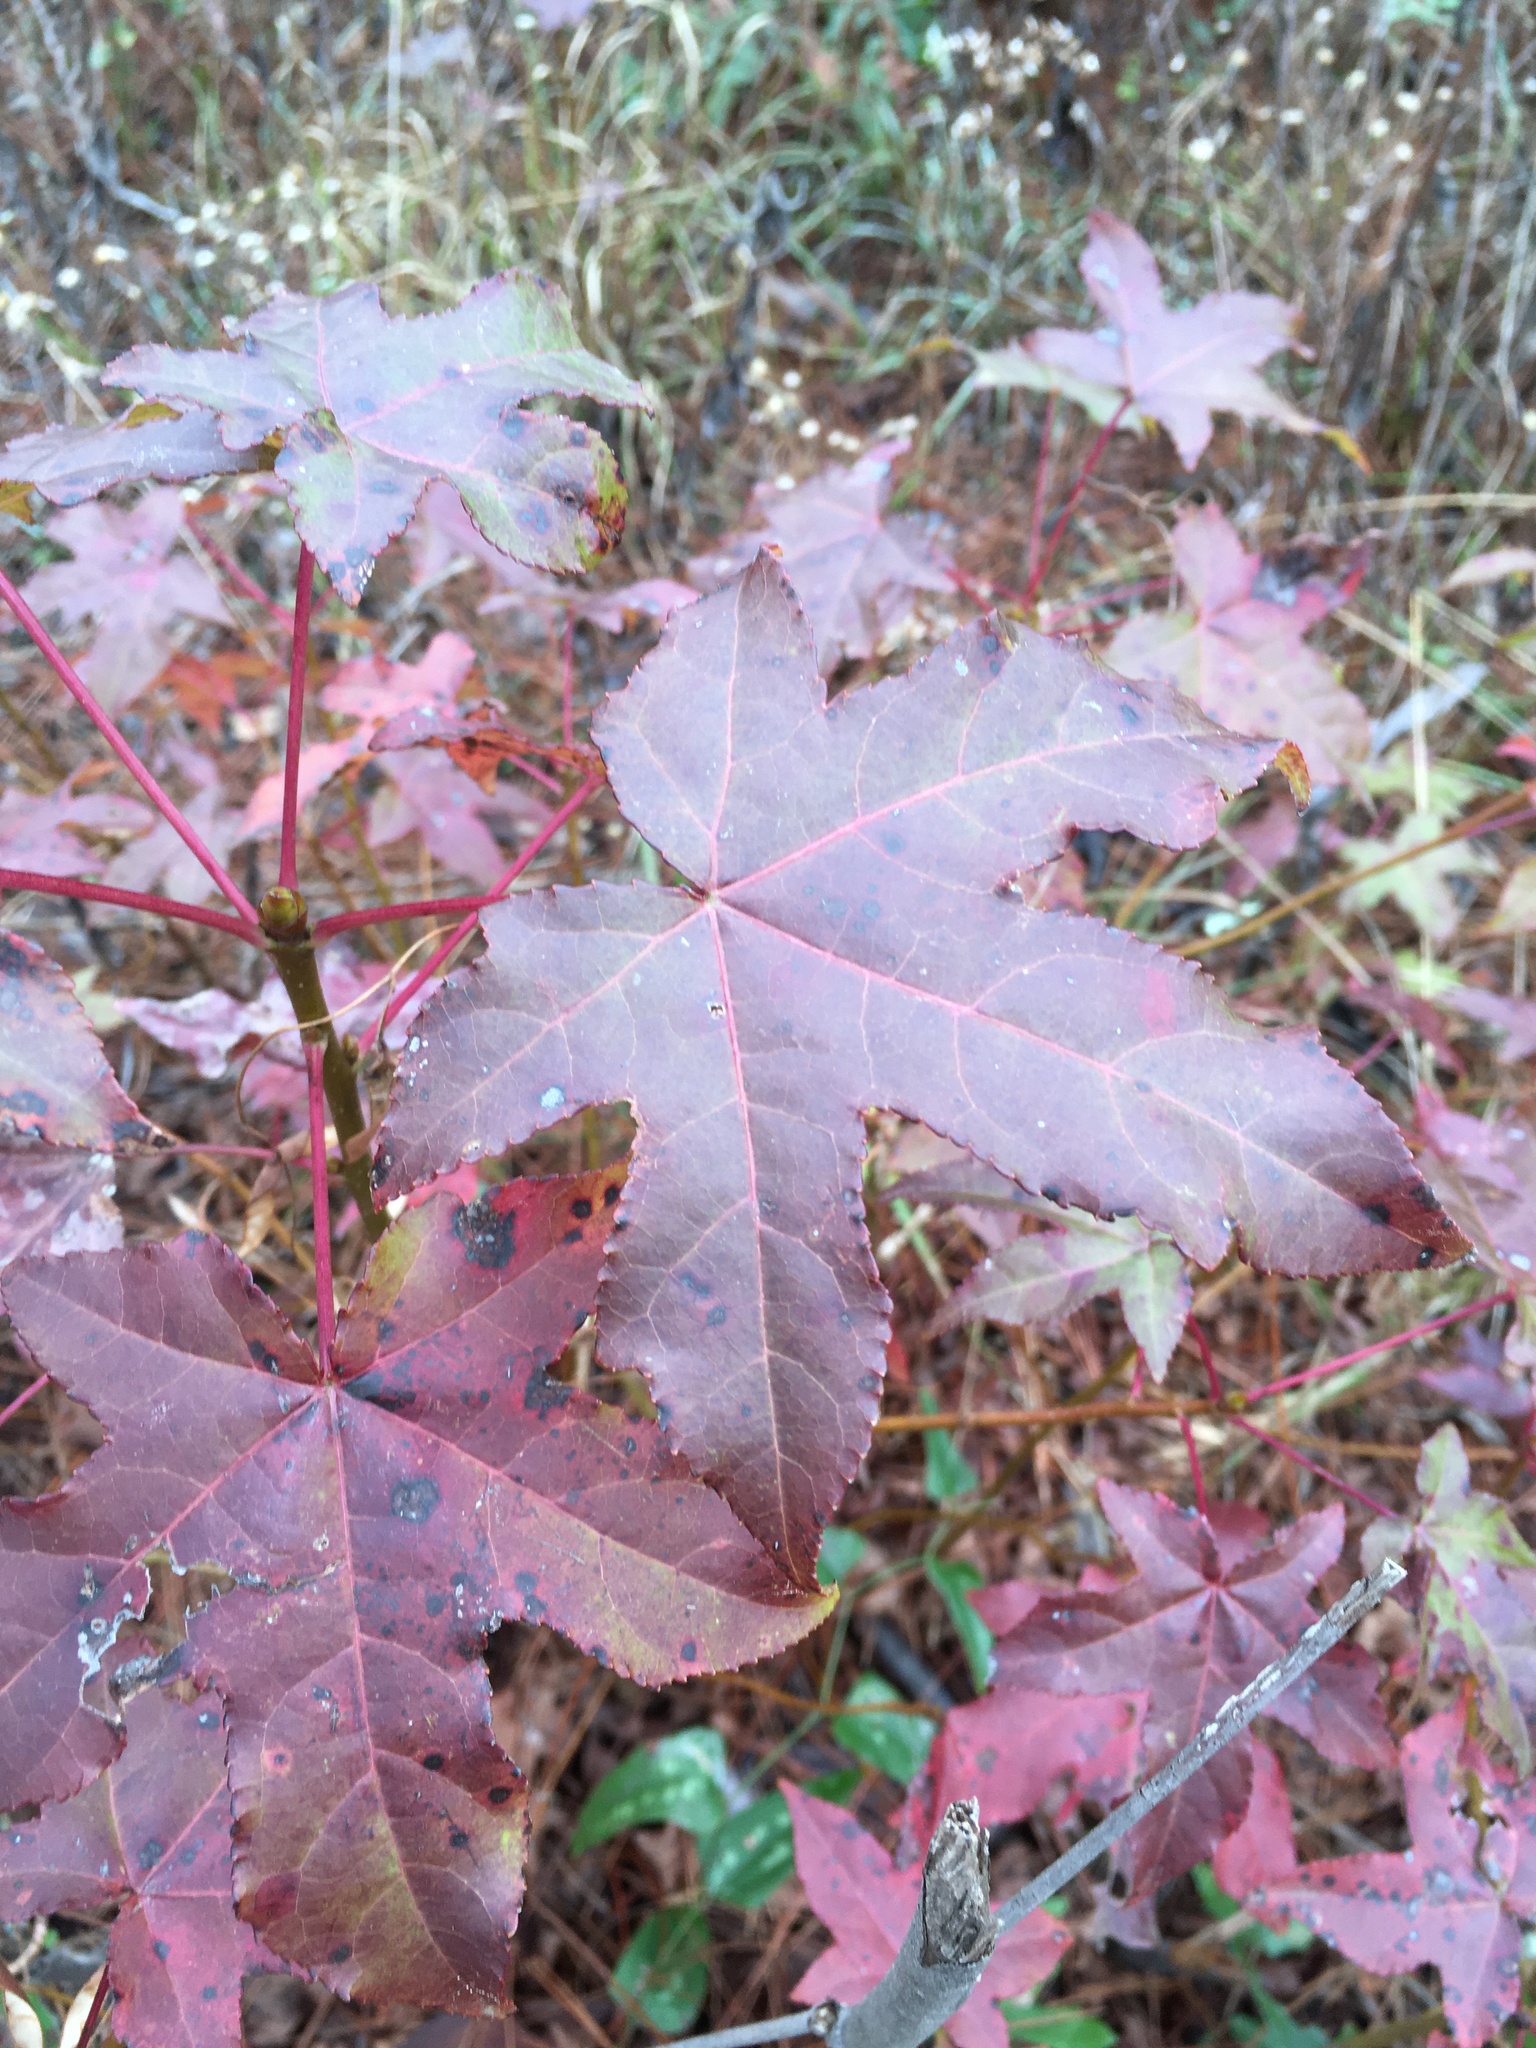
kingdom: Plantae
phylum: Tracheophyta
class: Magnoliopsida
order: Saxifragales
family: Altingiaceae
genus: Liquidambar
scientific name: Liquidambar styraciflua
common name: Sweet gum
